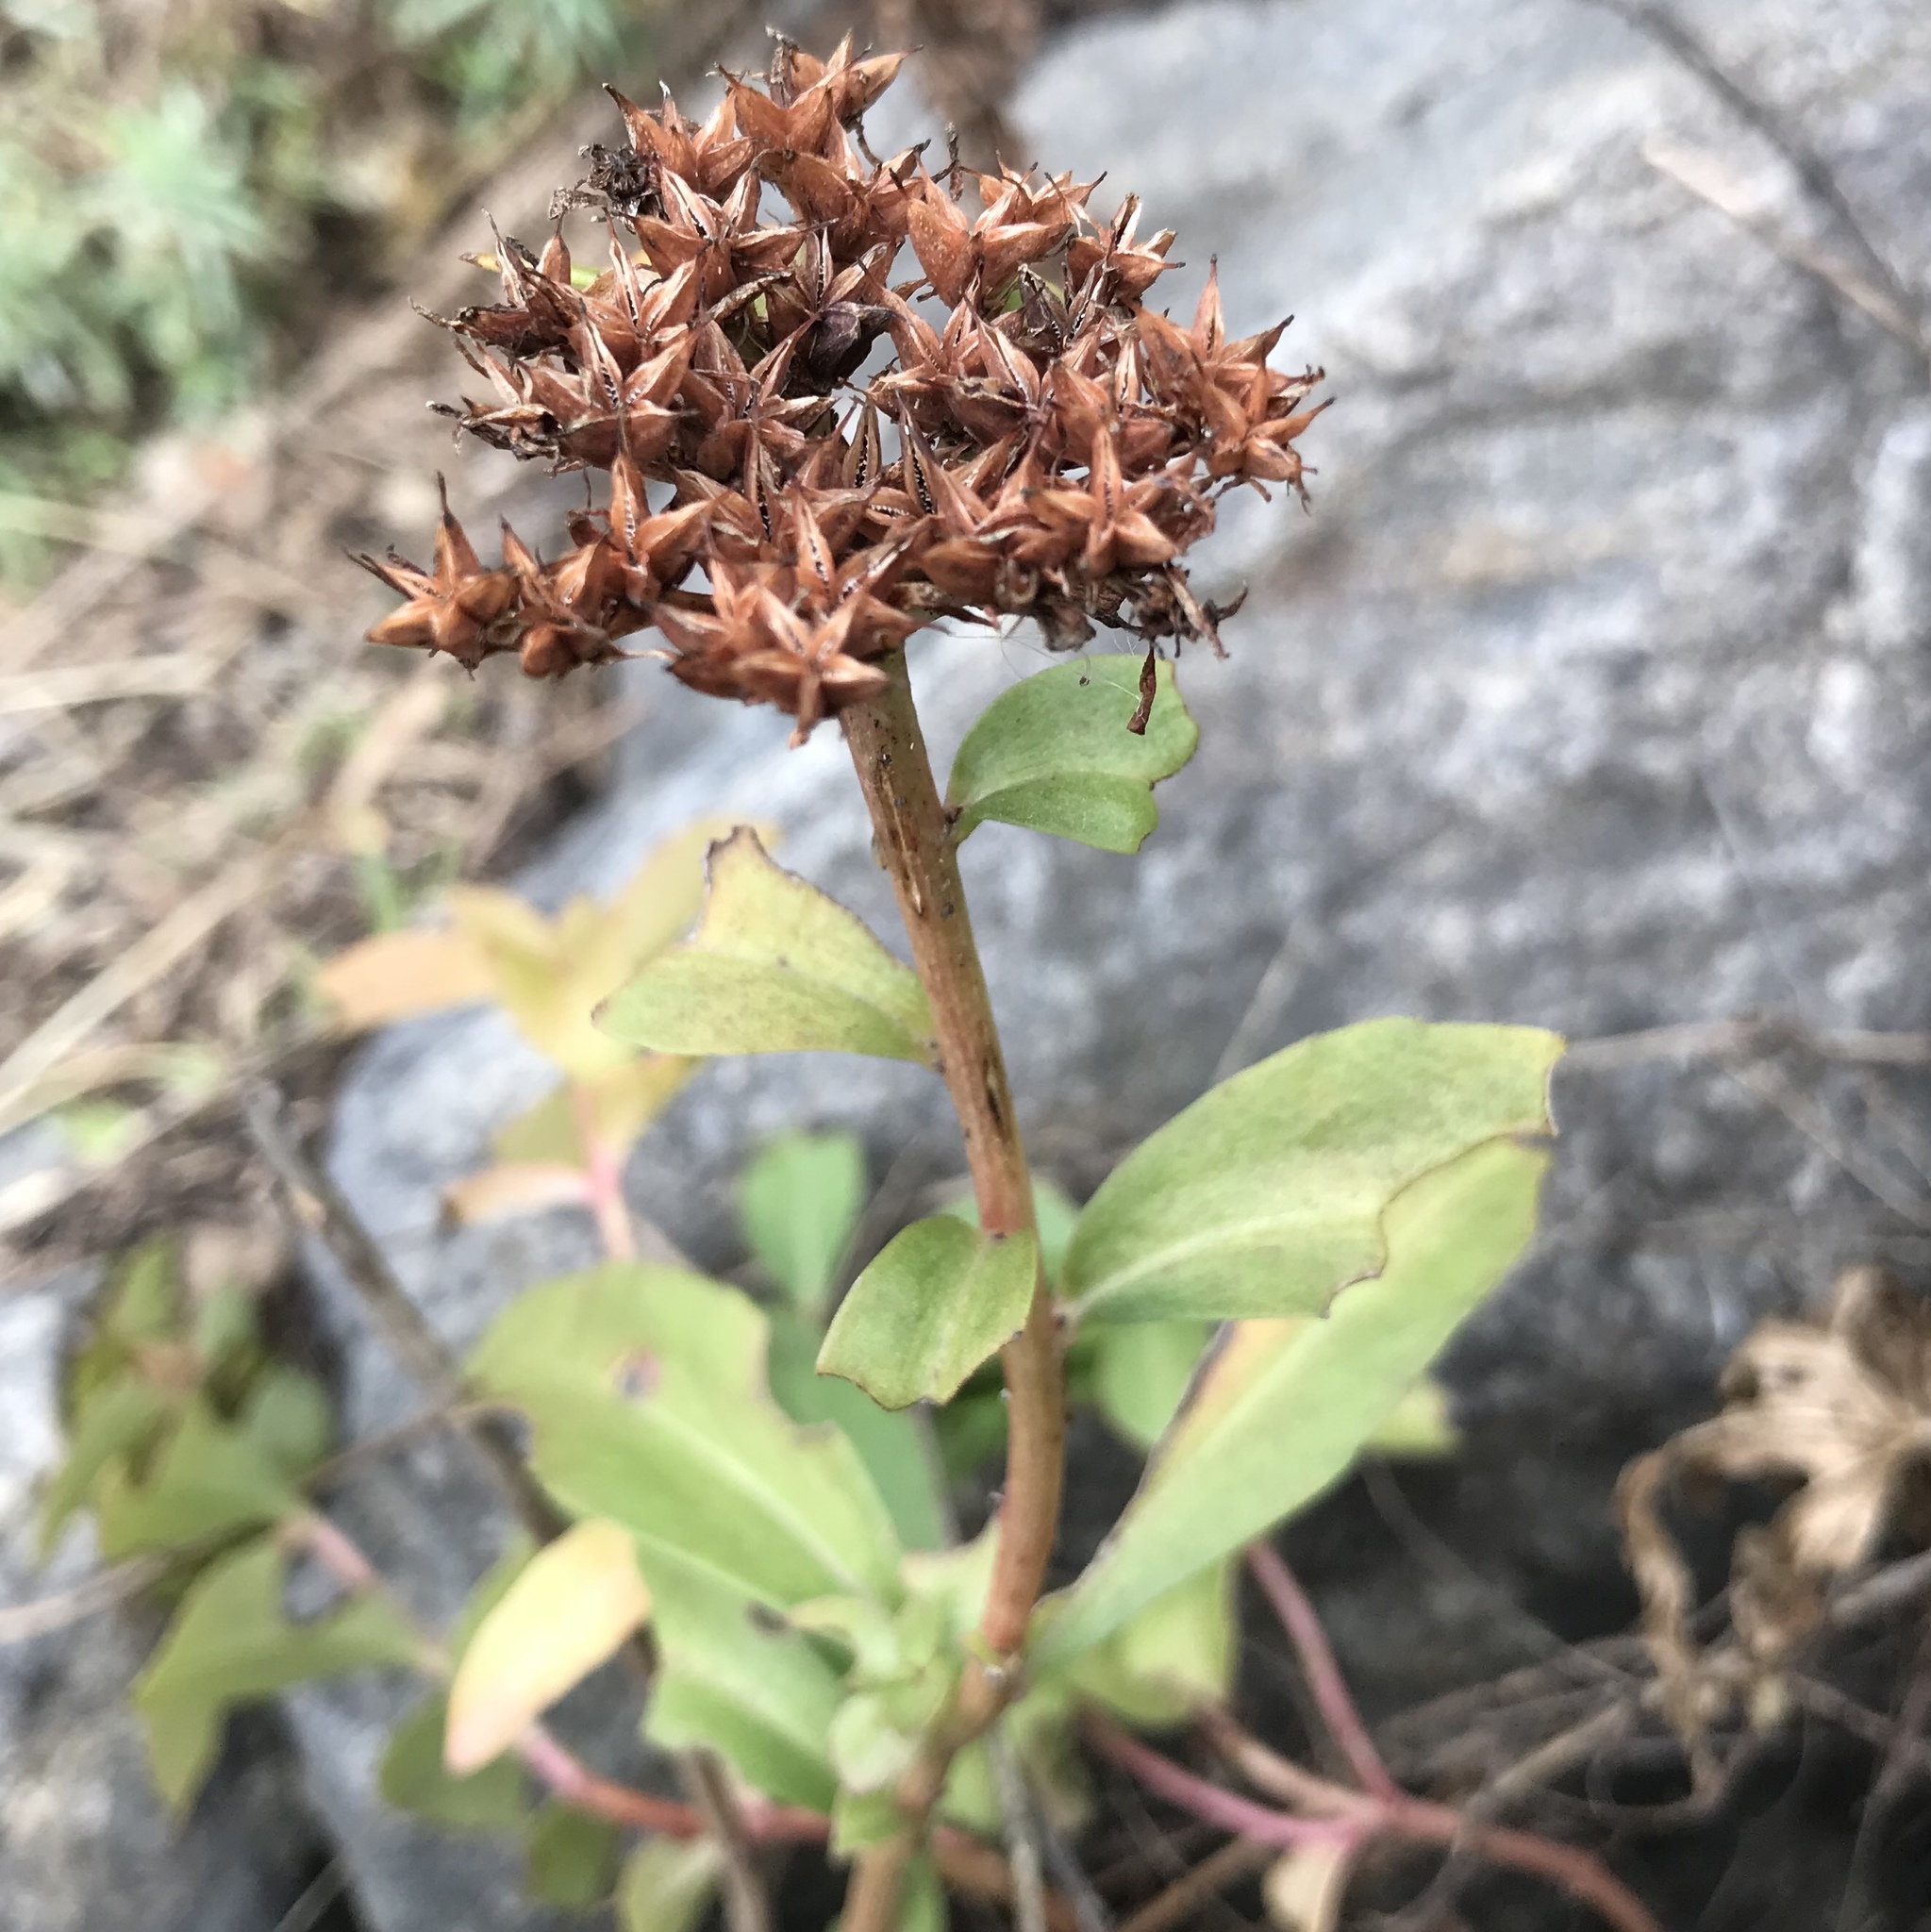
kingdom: Plantae
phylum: Tracheophyta
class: Magnoliopsida
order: Saxifragales
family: Crassulaceae
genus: Phedimus
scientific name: Phedimus aizoon
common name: Orpin aizoon
